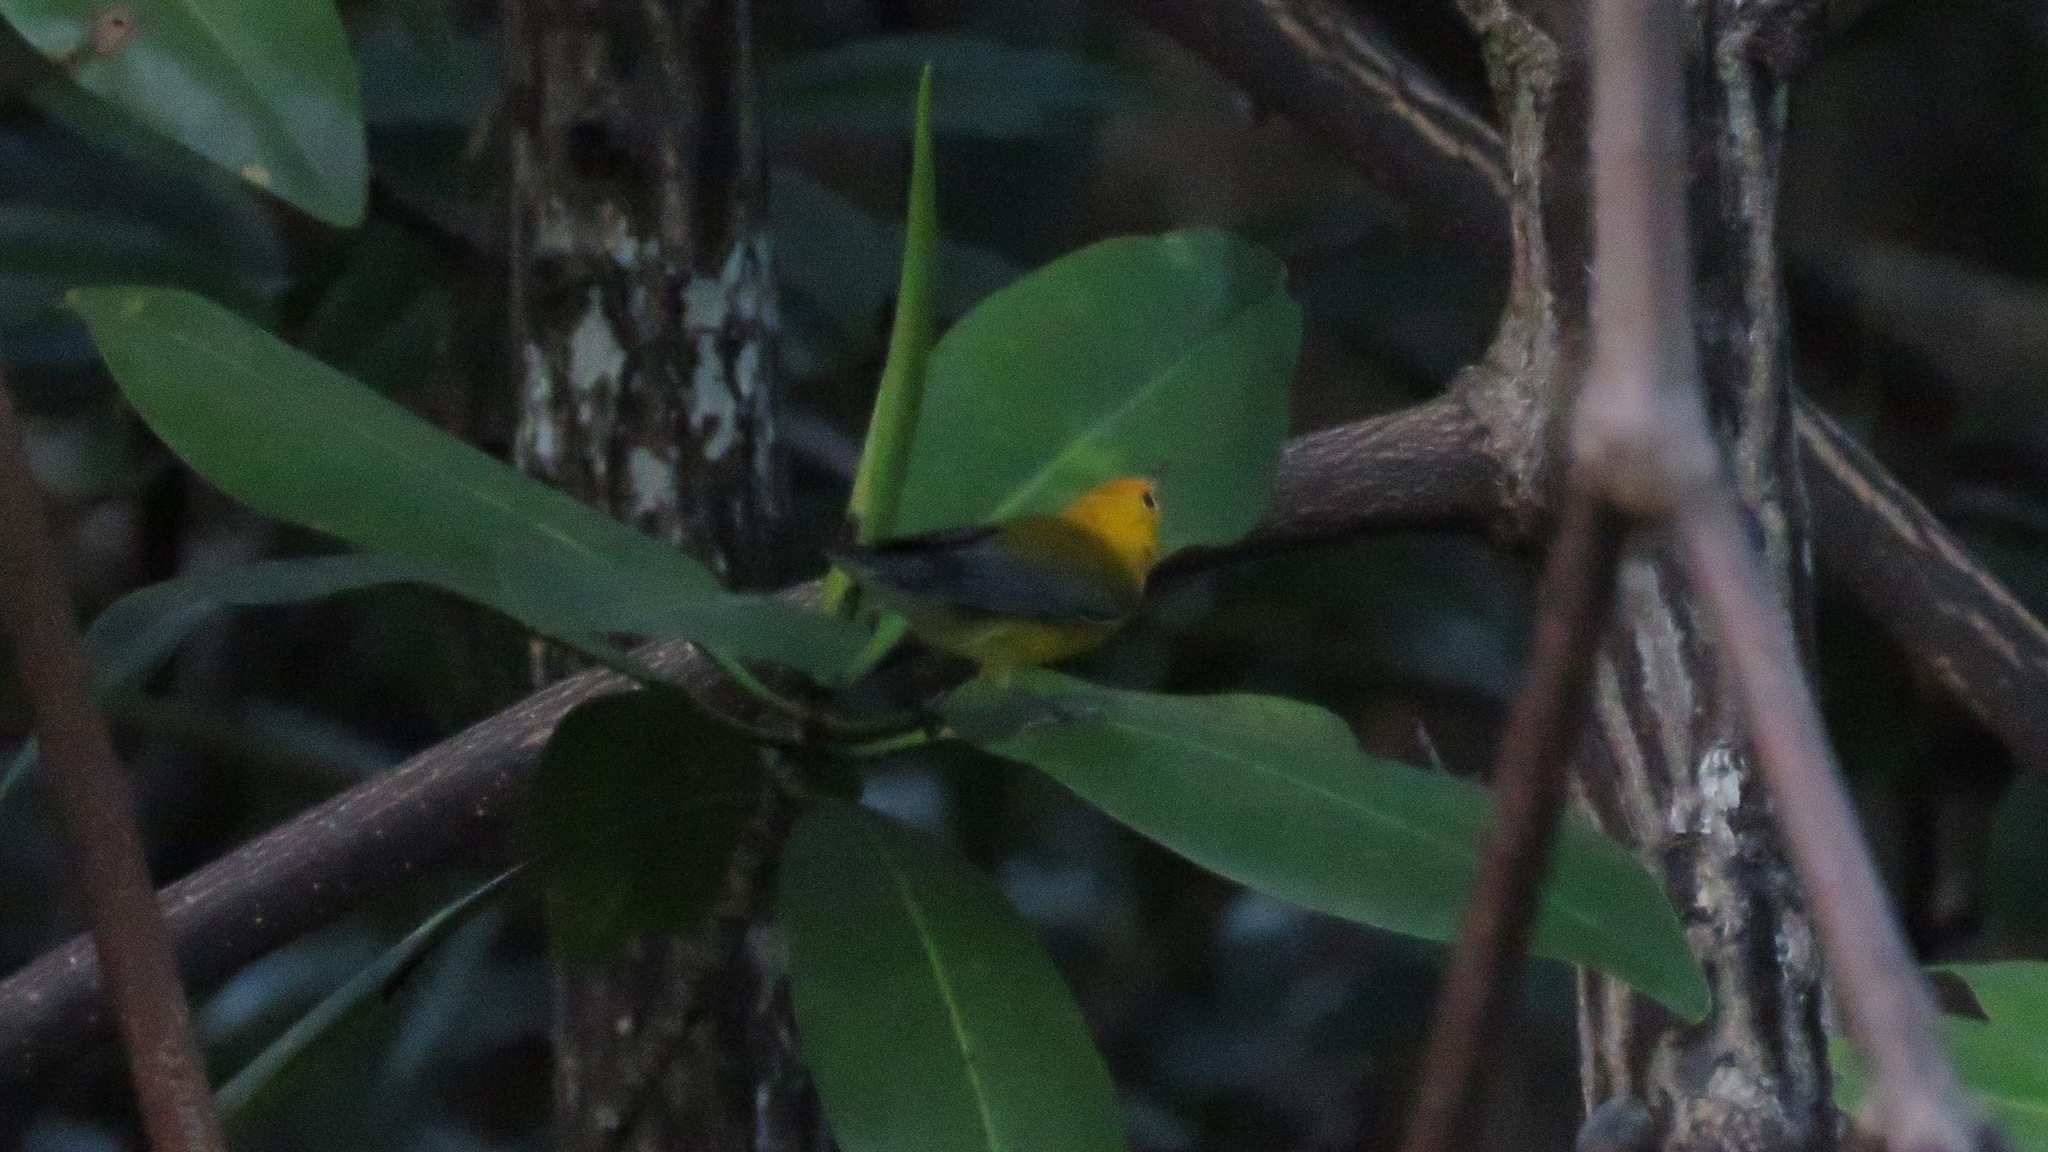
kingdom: Animalia
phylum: Chordata
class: Aves
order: Passeriformes
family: Parulidae
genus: Protonotaria
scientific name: Protonotaria citrea
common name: Prothonotary warbler
